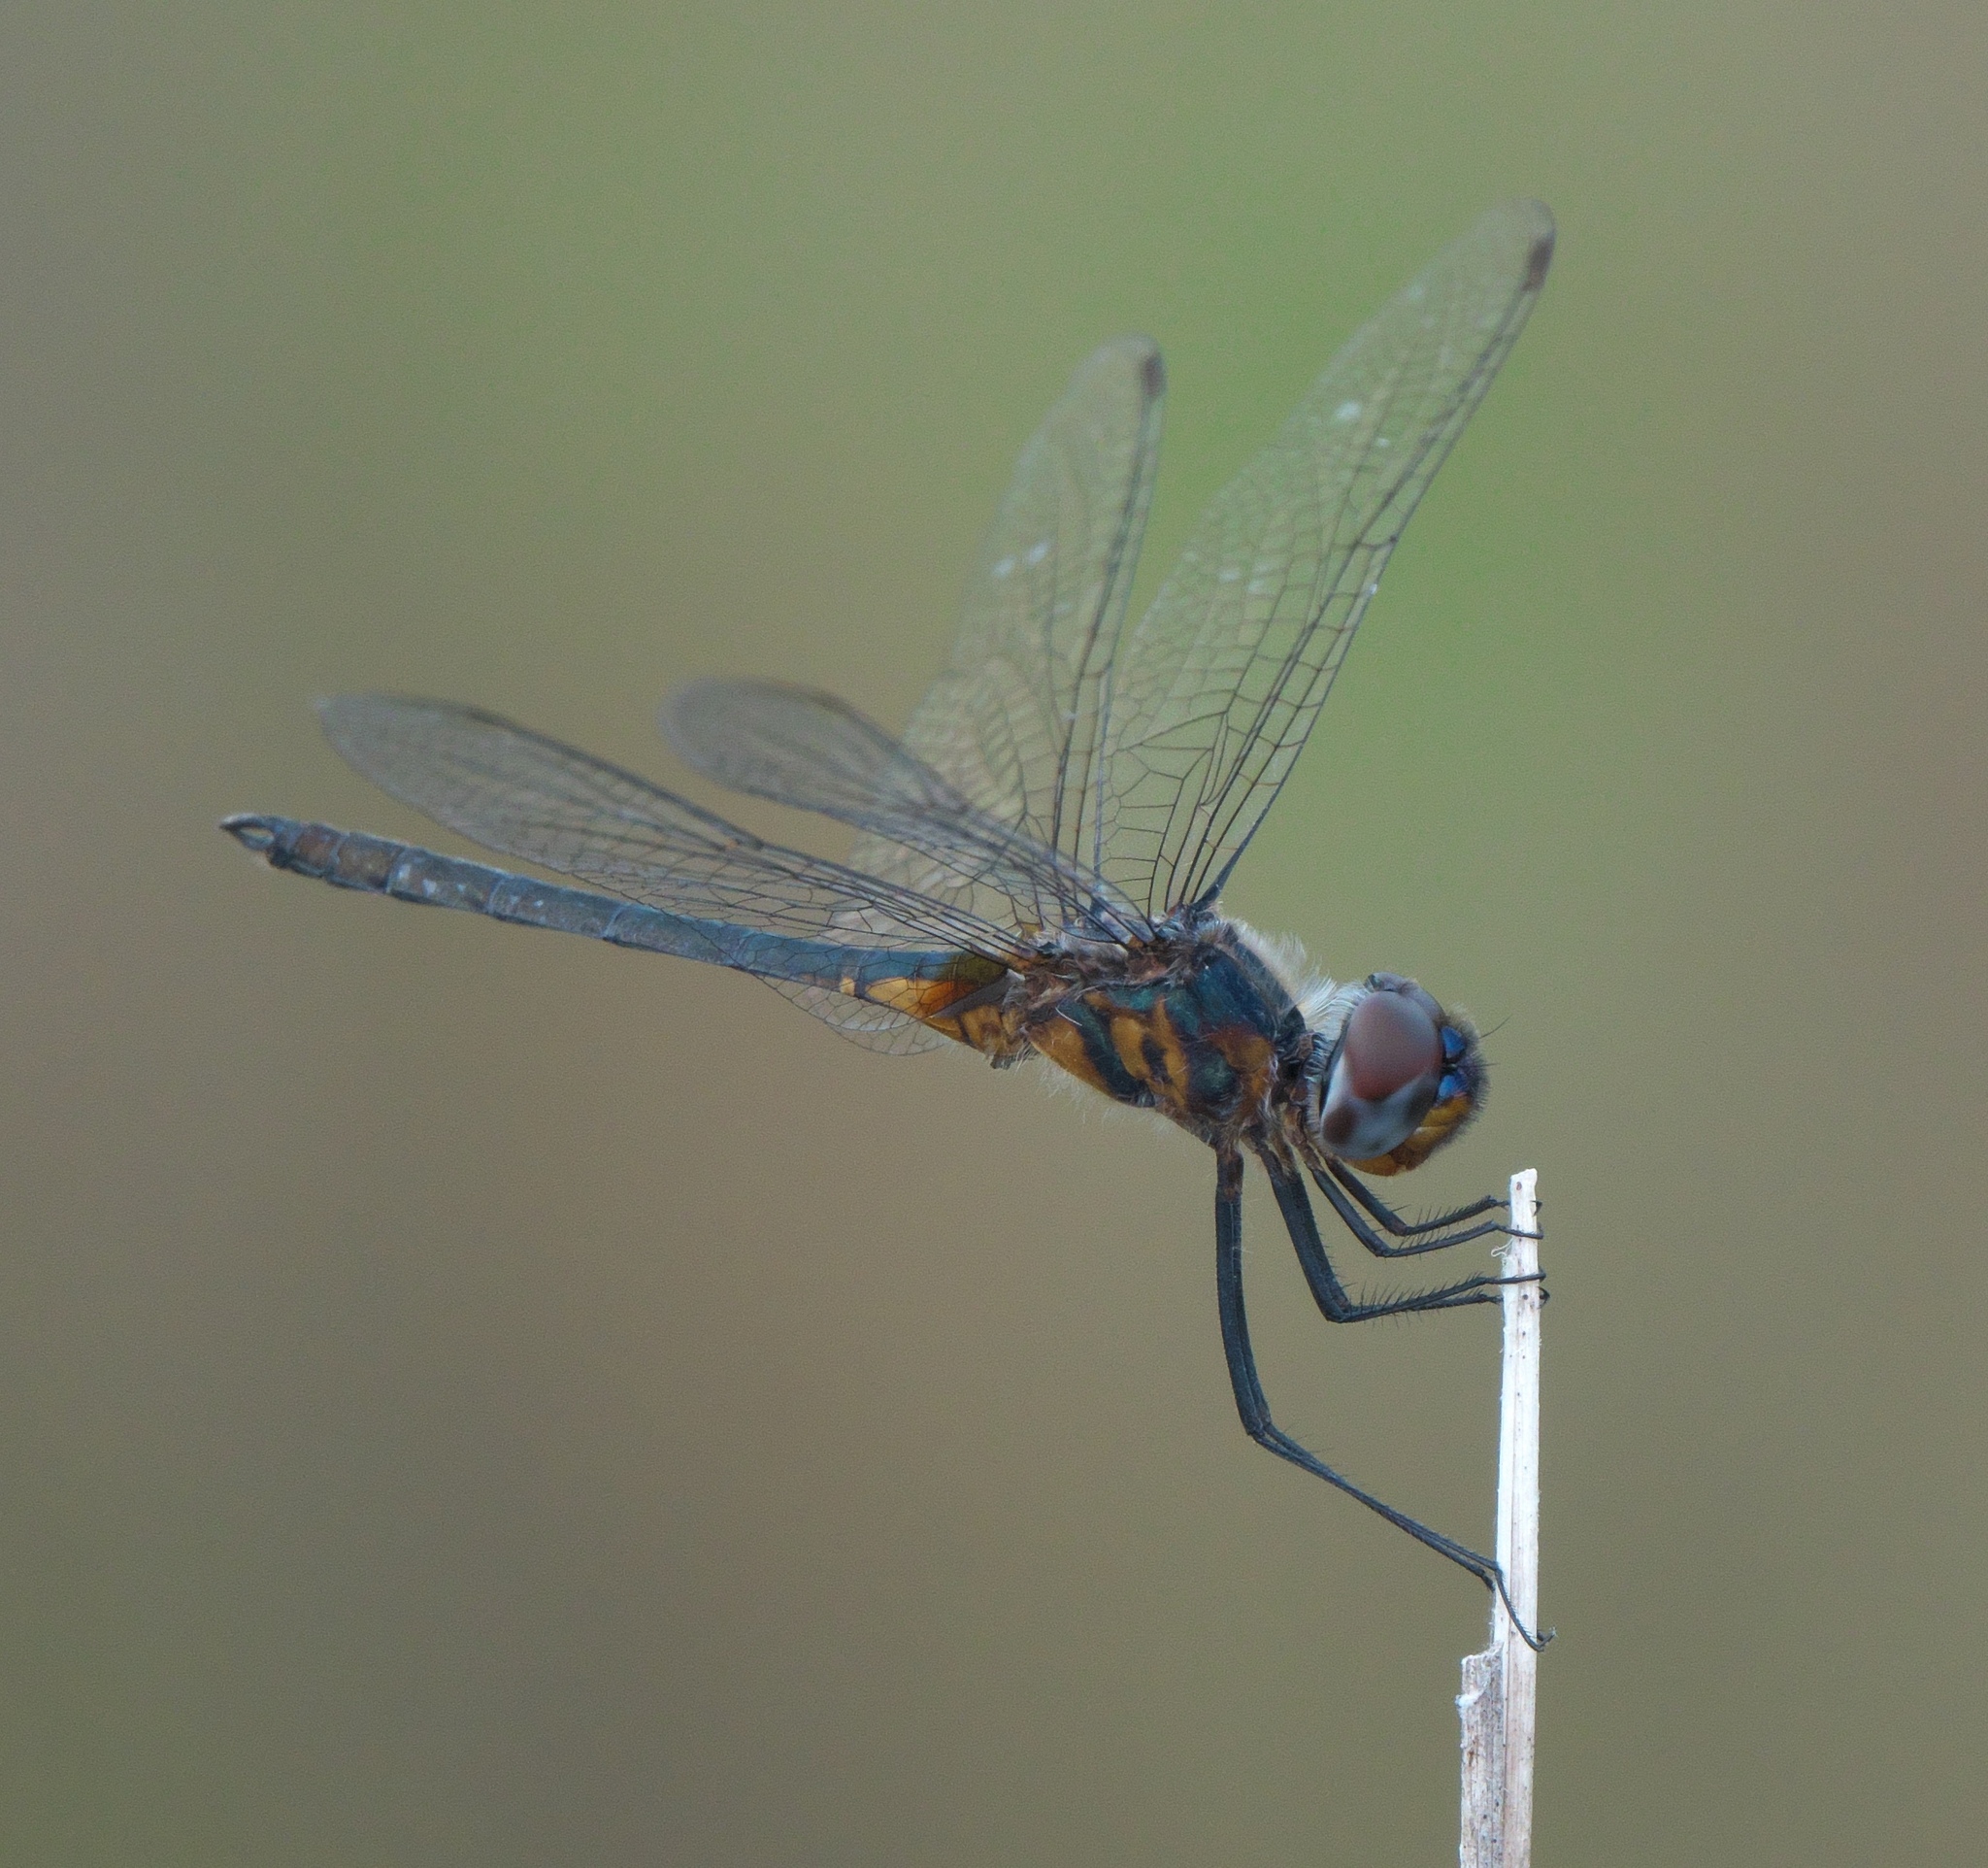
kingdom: Animalia
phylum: Arthropoda
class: Insecta
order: Odonata
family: Libellulidae
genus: Idiataphe
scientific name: Idiataphe cubensis
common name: Metallic pennant
